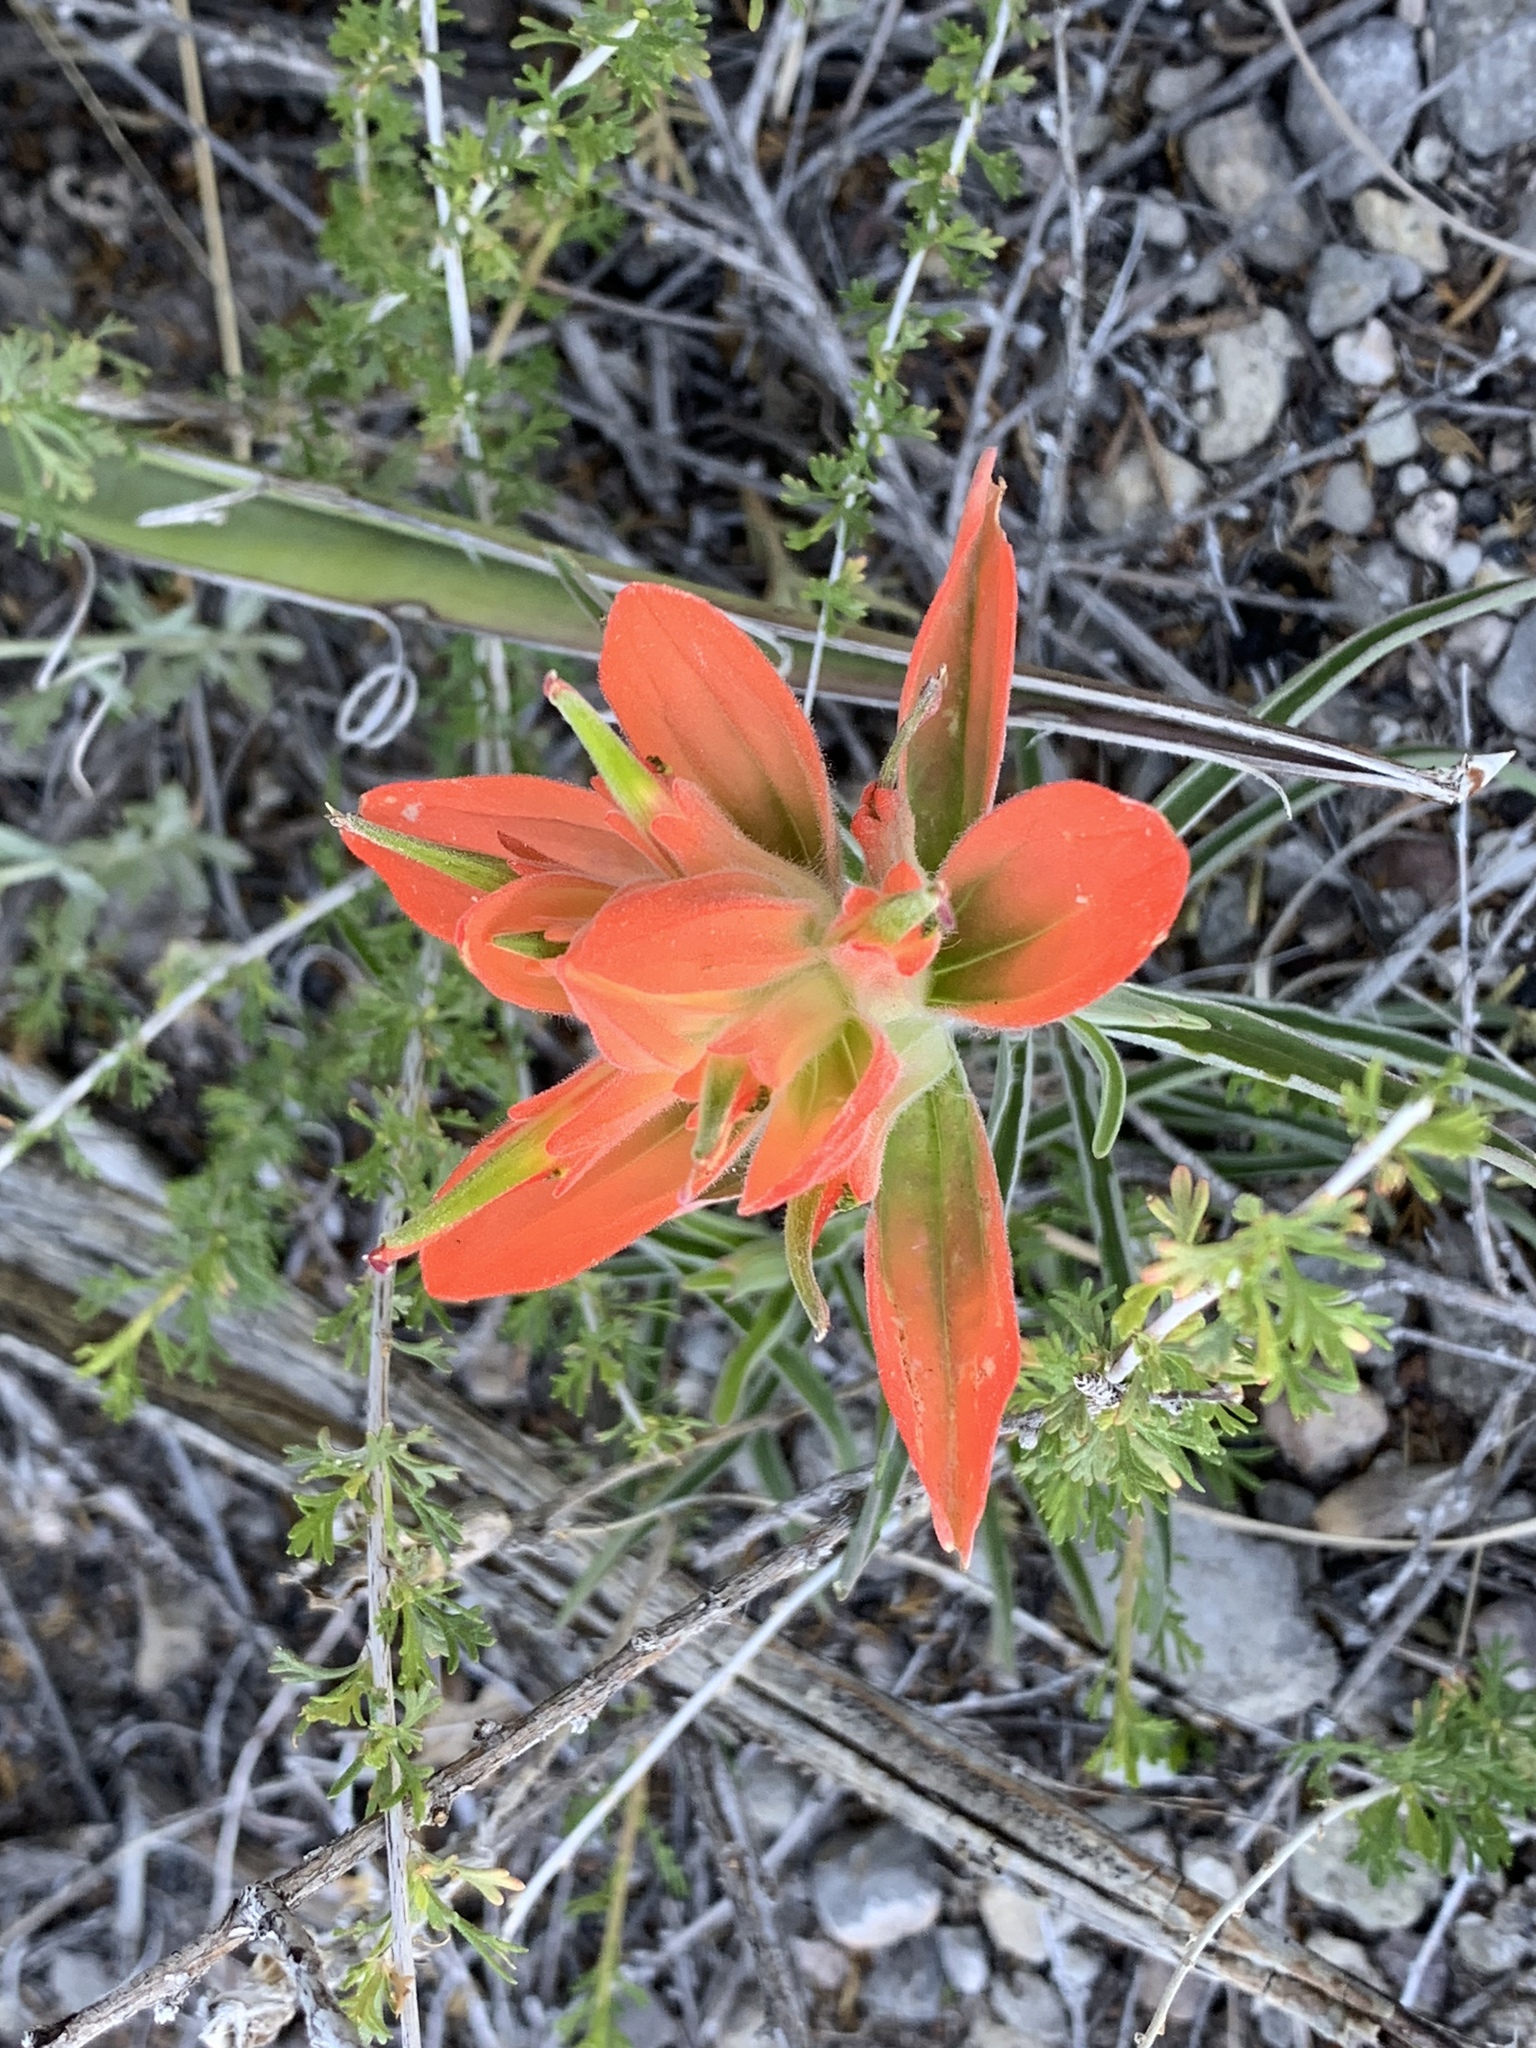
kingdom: Plantae
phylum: Tracheophyta
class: Magnoliopsida
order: Lamiales
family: Orobanchaceae
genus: Castilleja
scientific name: Castilleja integra
